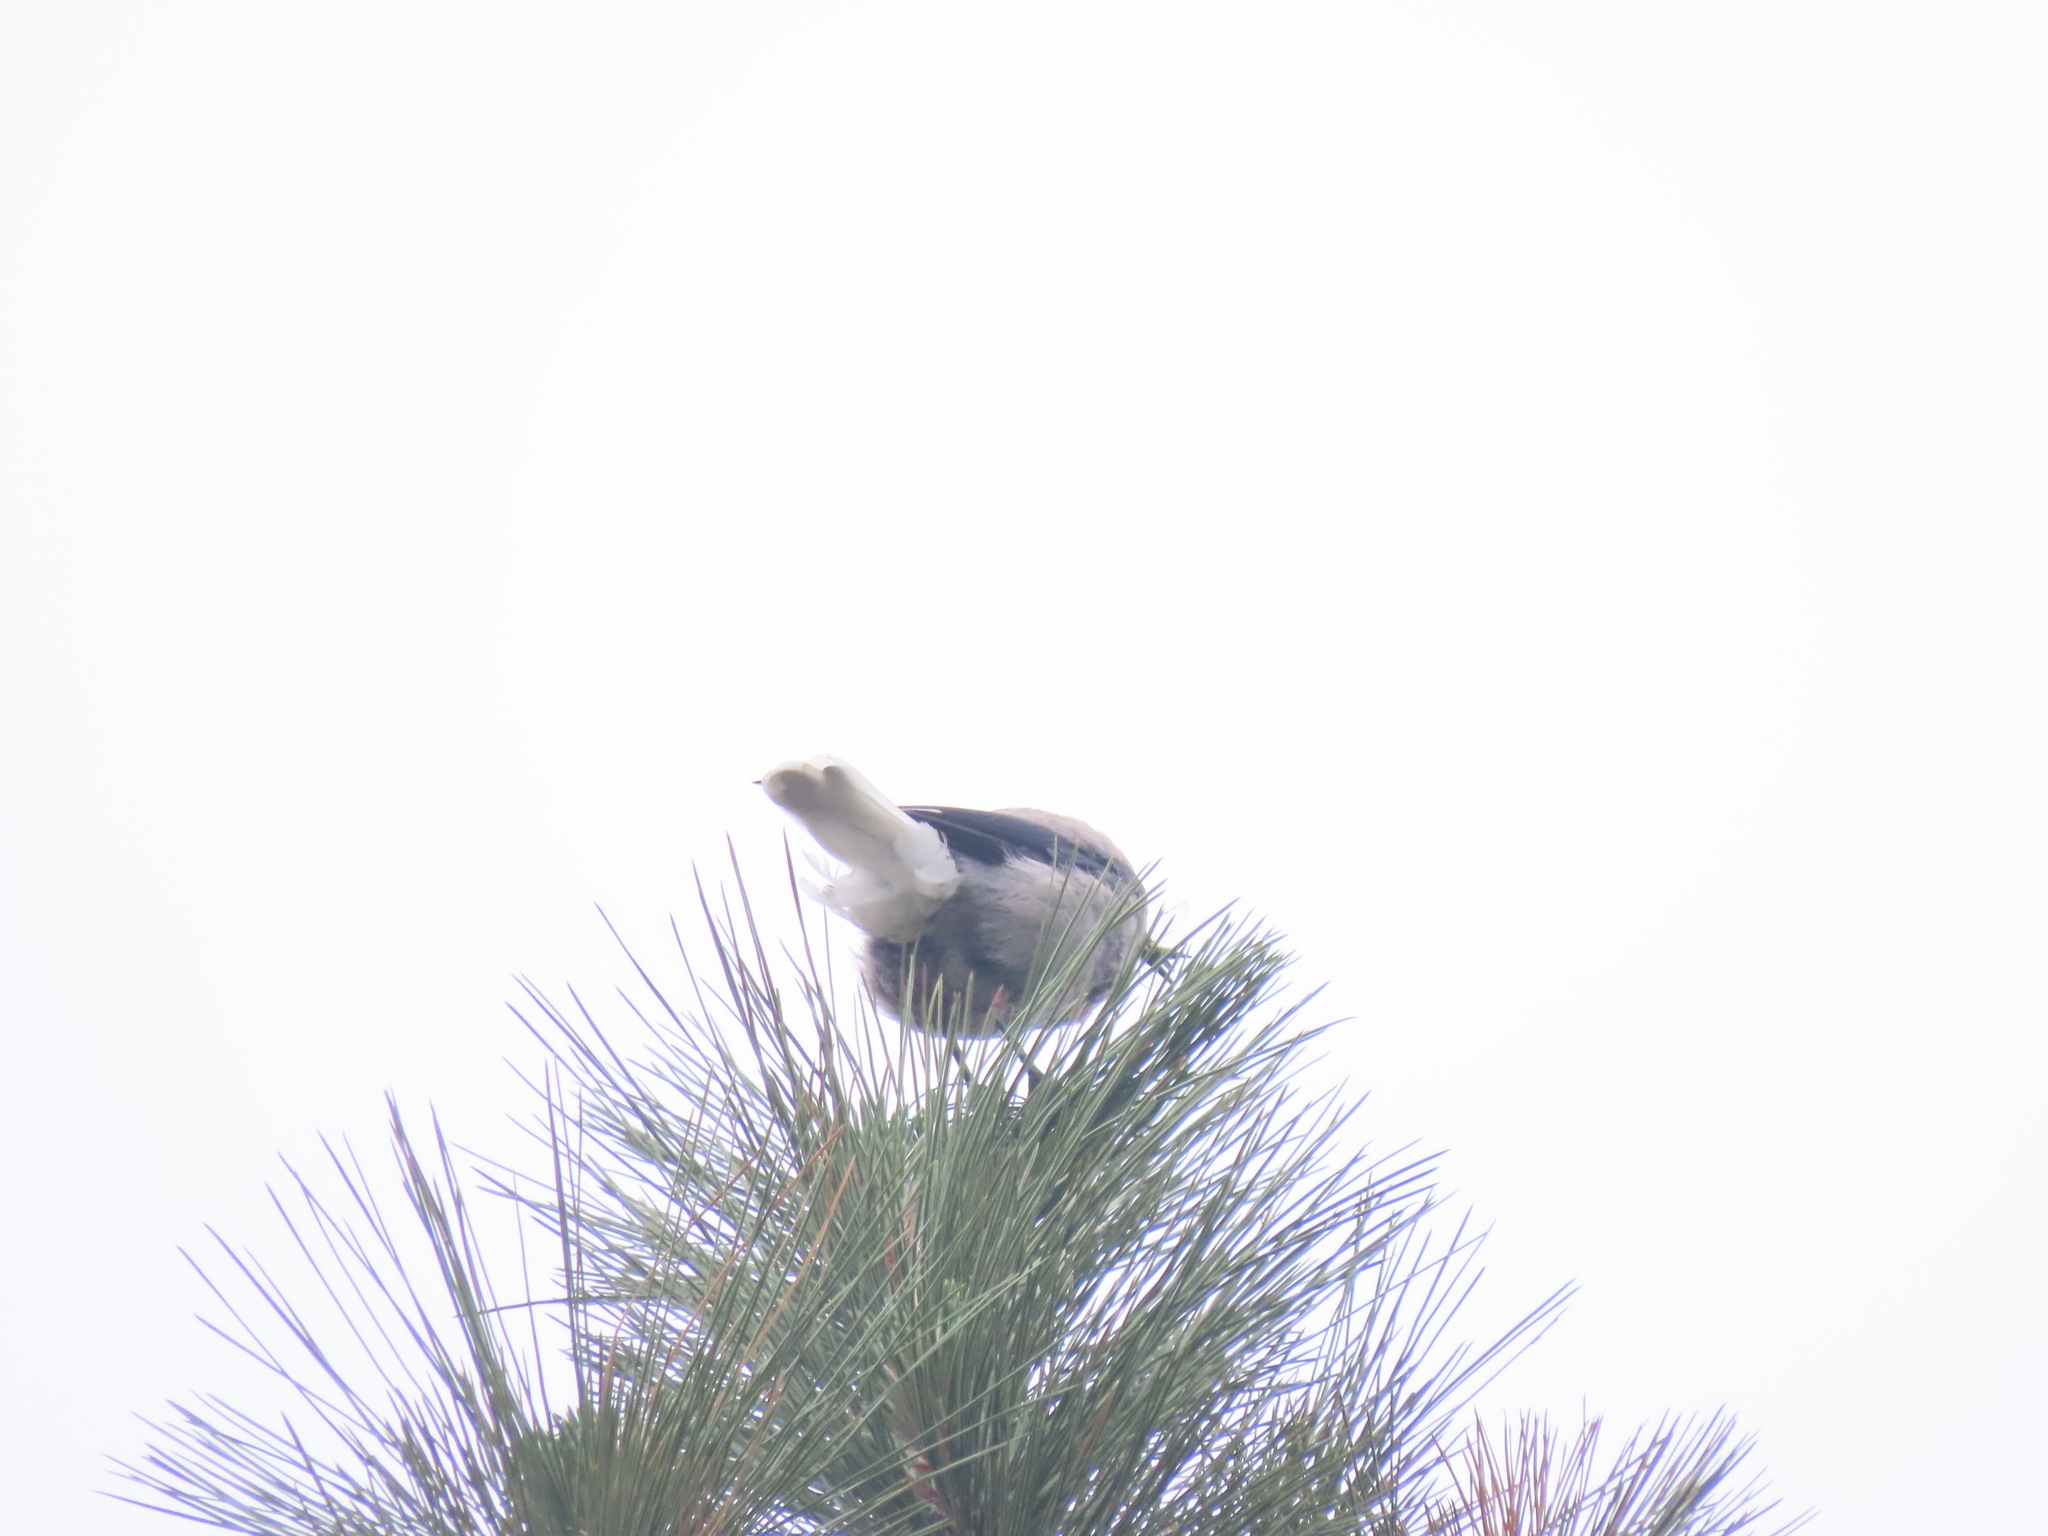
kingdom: Animalia
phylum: Chordata
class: Aves
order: Passeriformes
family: Corvidae
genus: Nucifraga
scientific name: Nucifraga columbiana
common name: Clark's nutcracker
